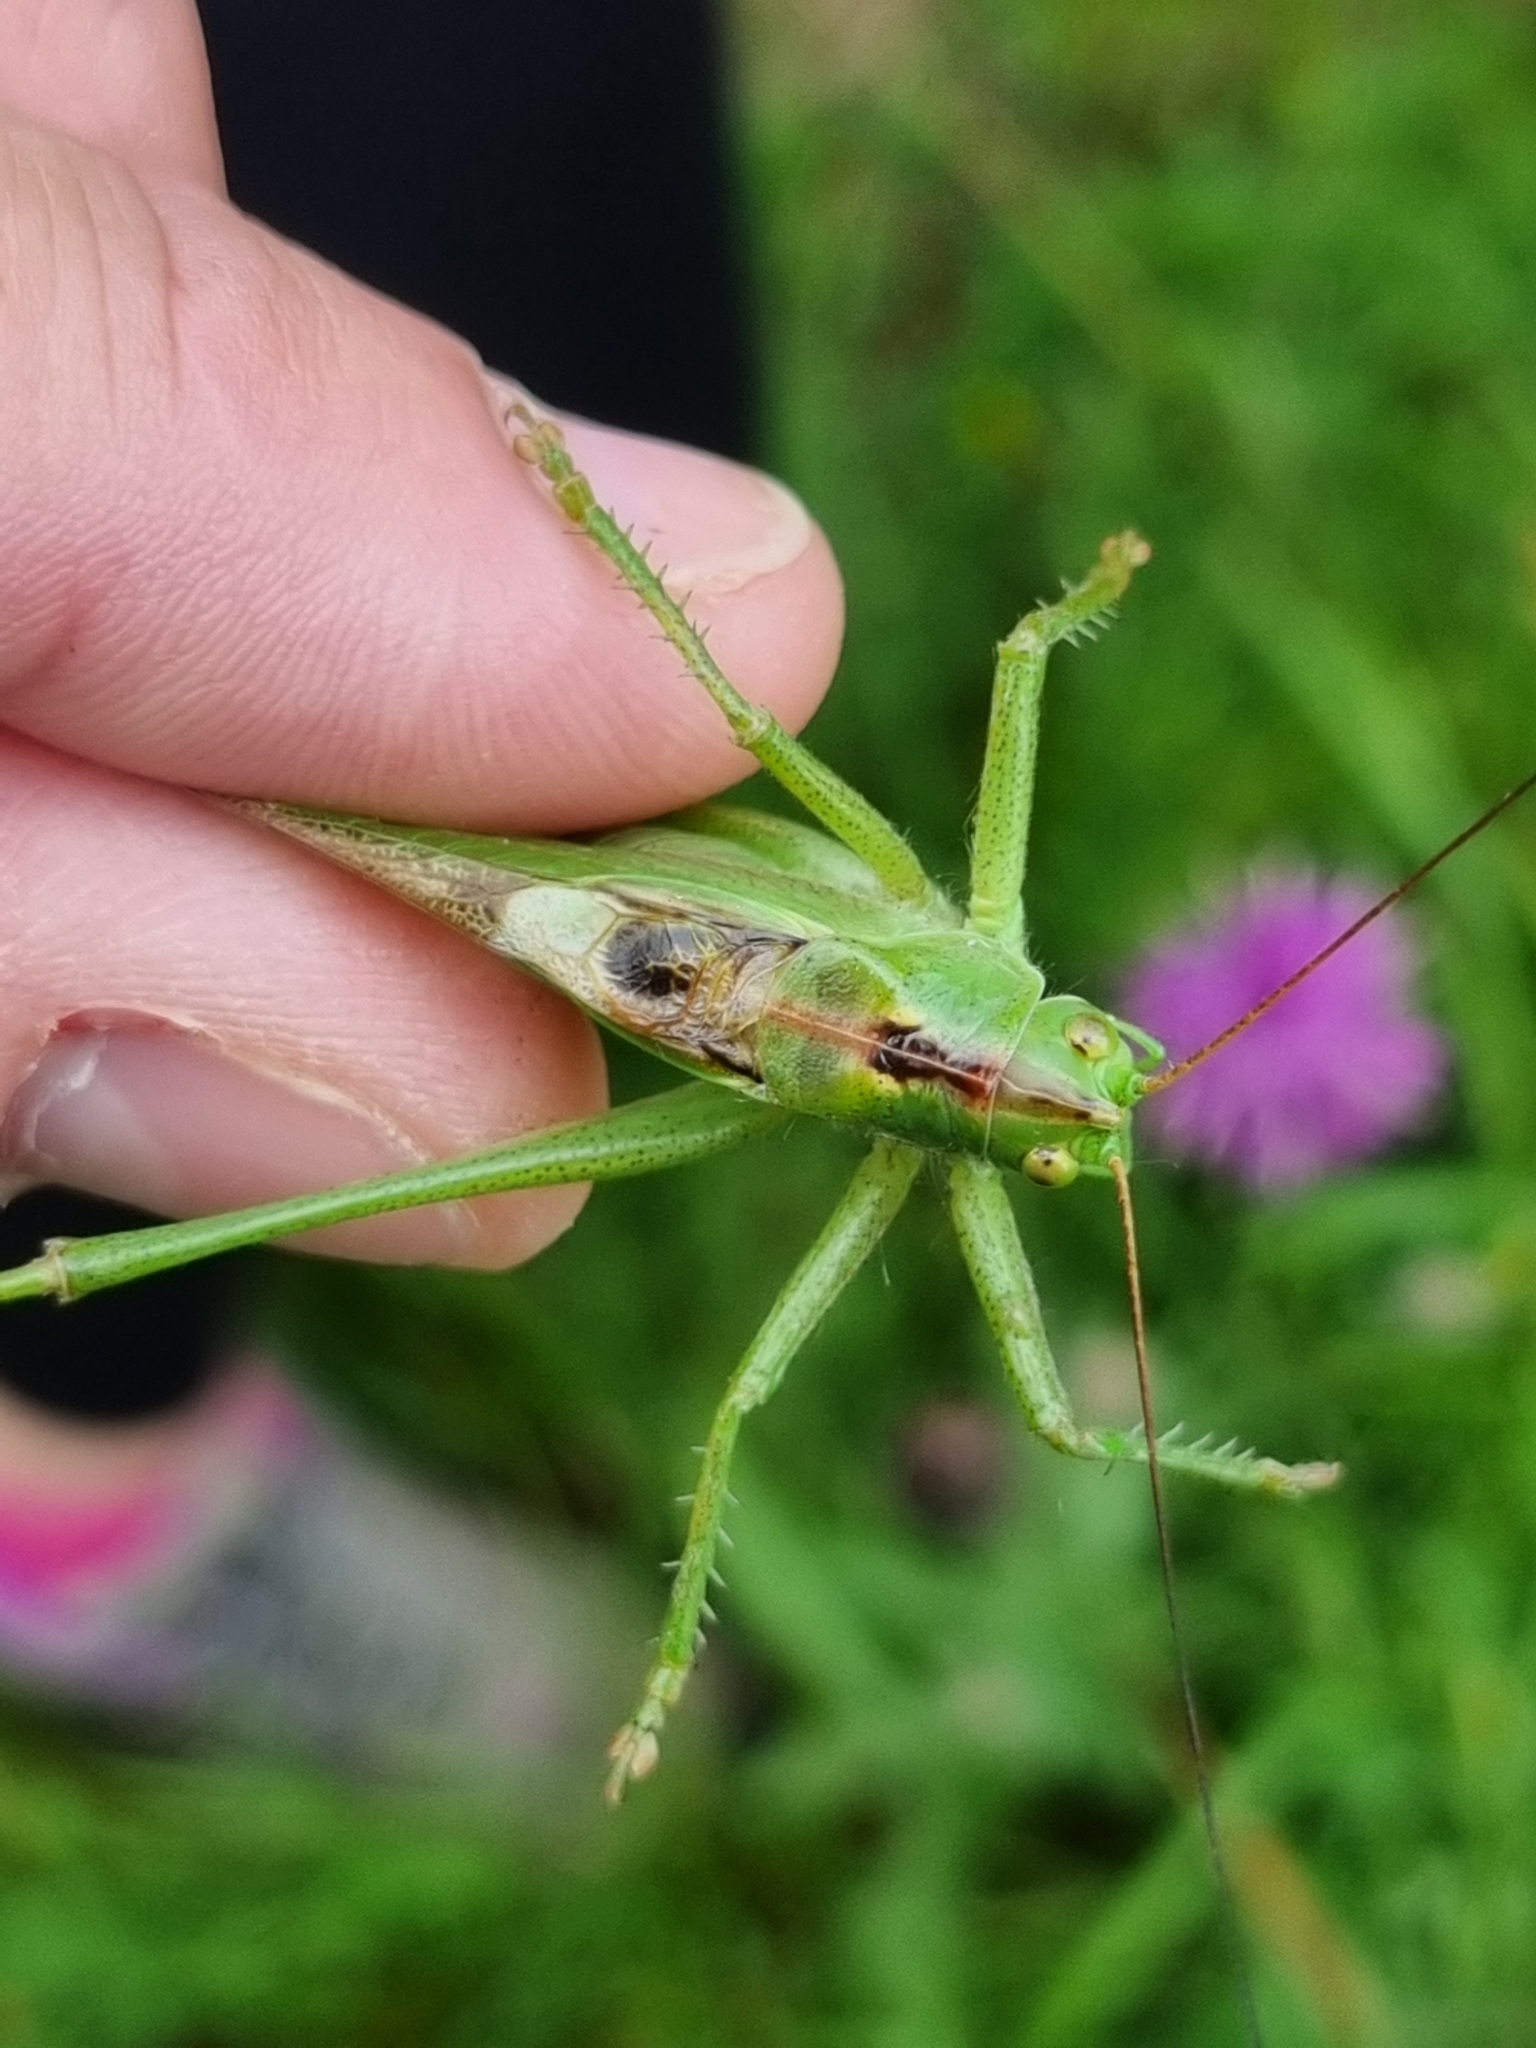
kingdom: Animalia
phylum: Arthropoda
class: Insecta
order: Orthoptera
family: Tettigoniidae
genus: Tettigonia
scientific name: Tettigonia viridissima
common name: Great green bush-cricket
